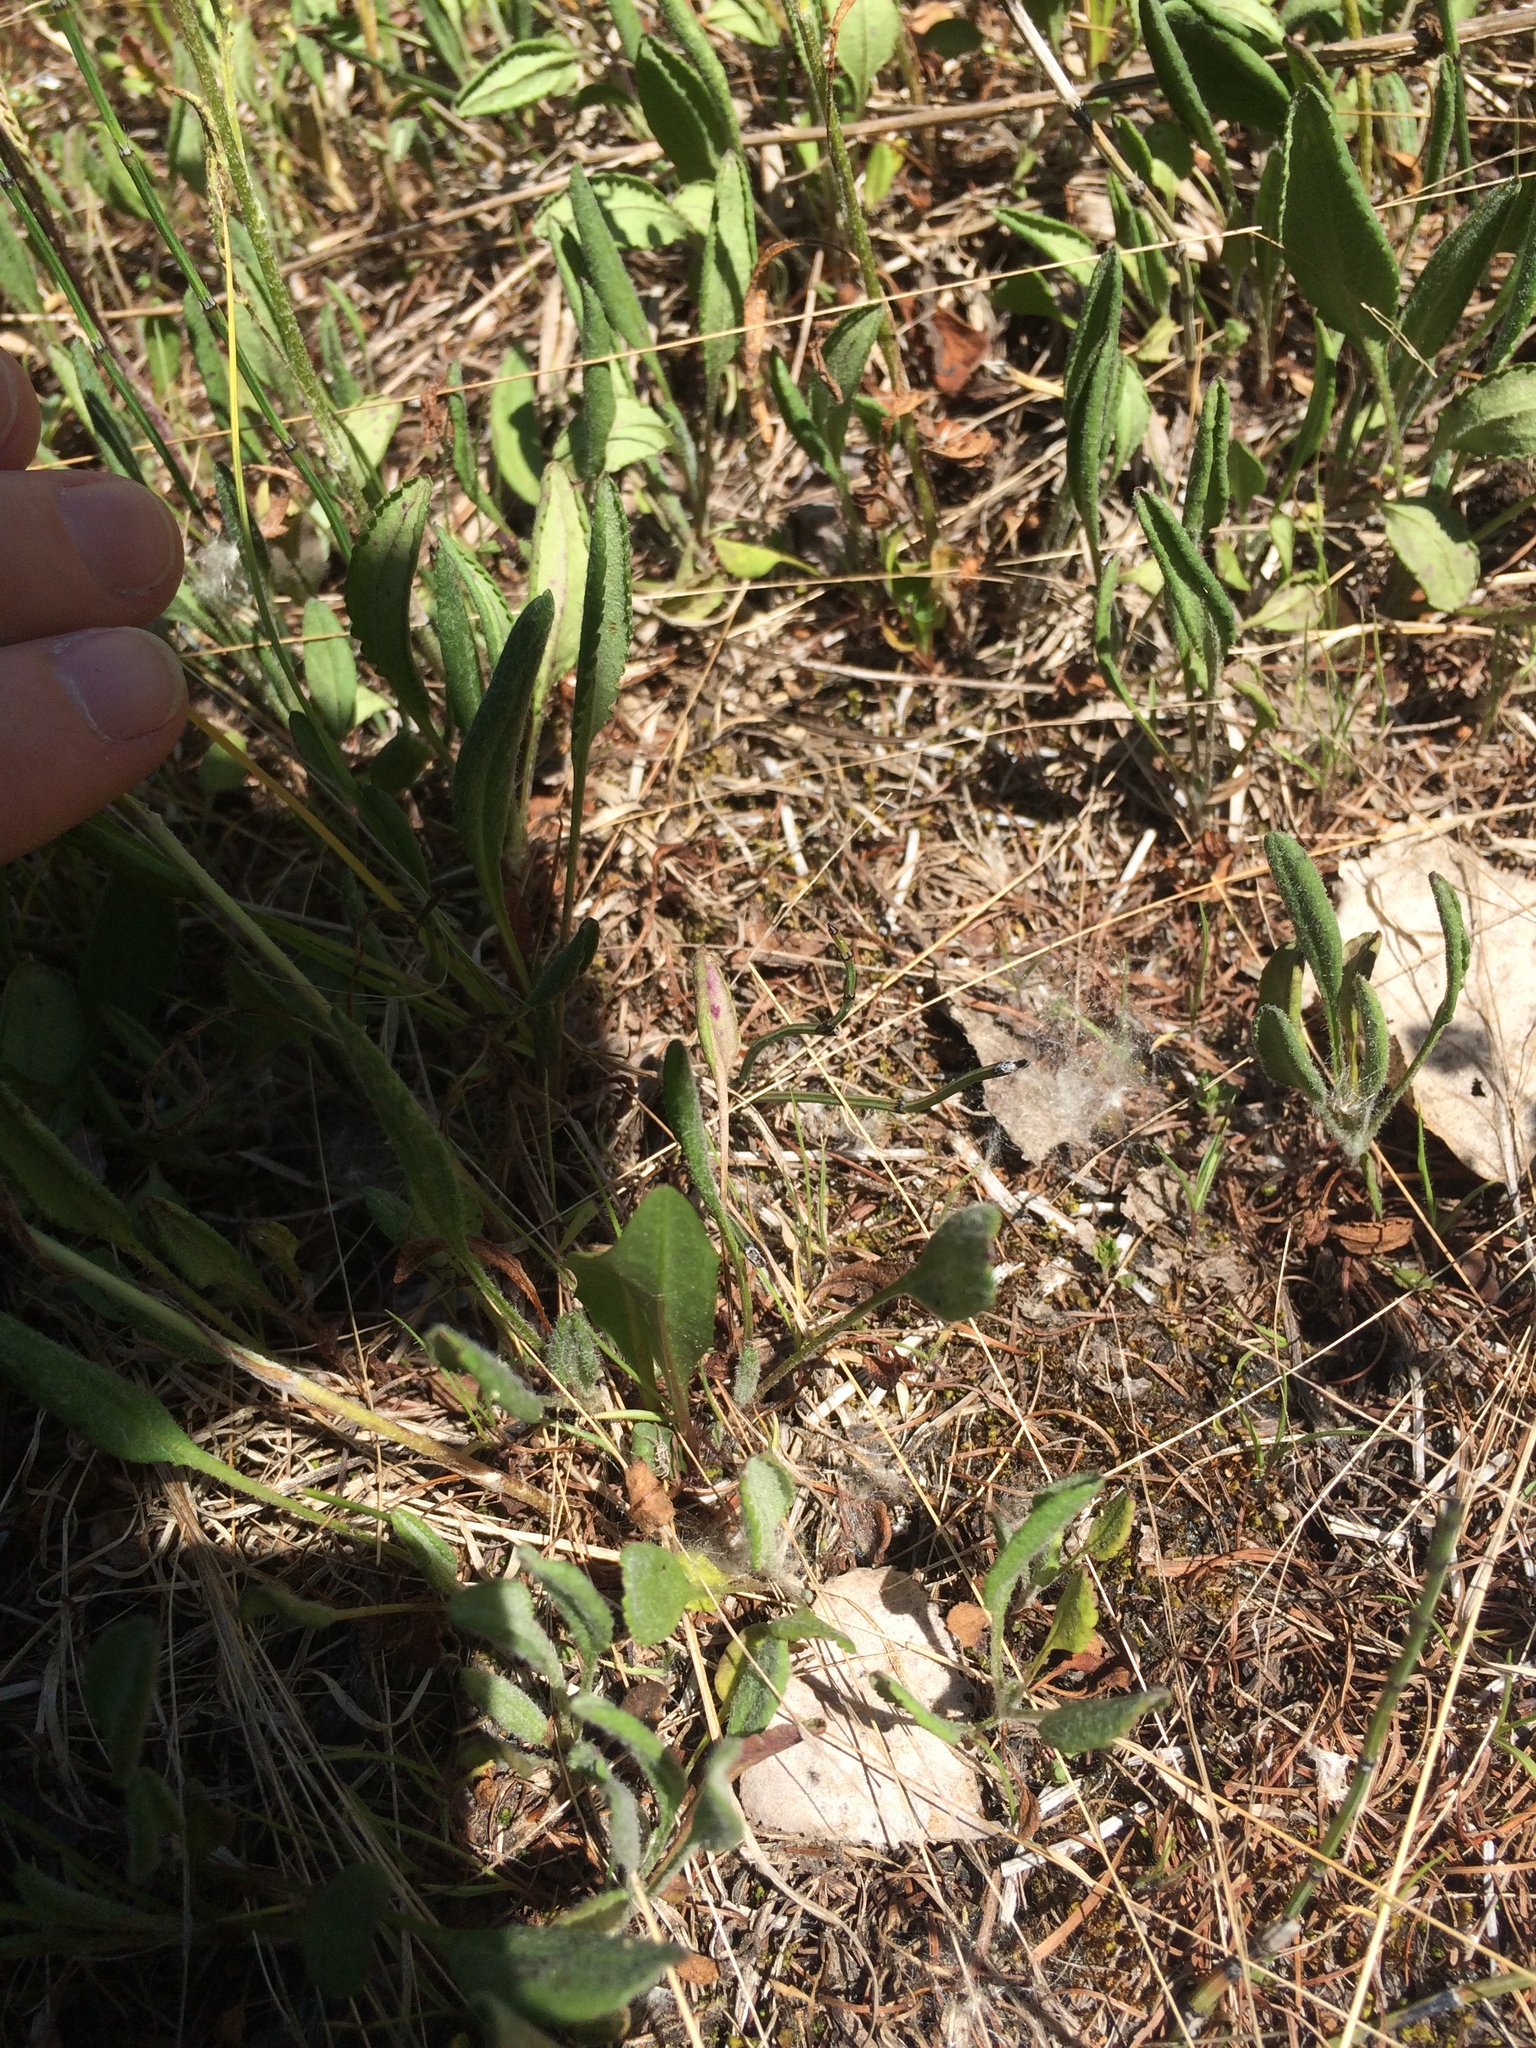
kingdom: Plantae
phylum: Tracheophyta
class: Magnoliopsida
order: Asterales
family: Asteraceae
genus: Packera
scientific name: Packera paupercula
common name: Balsam groundsel
